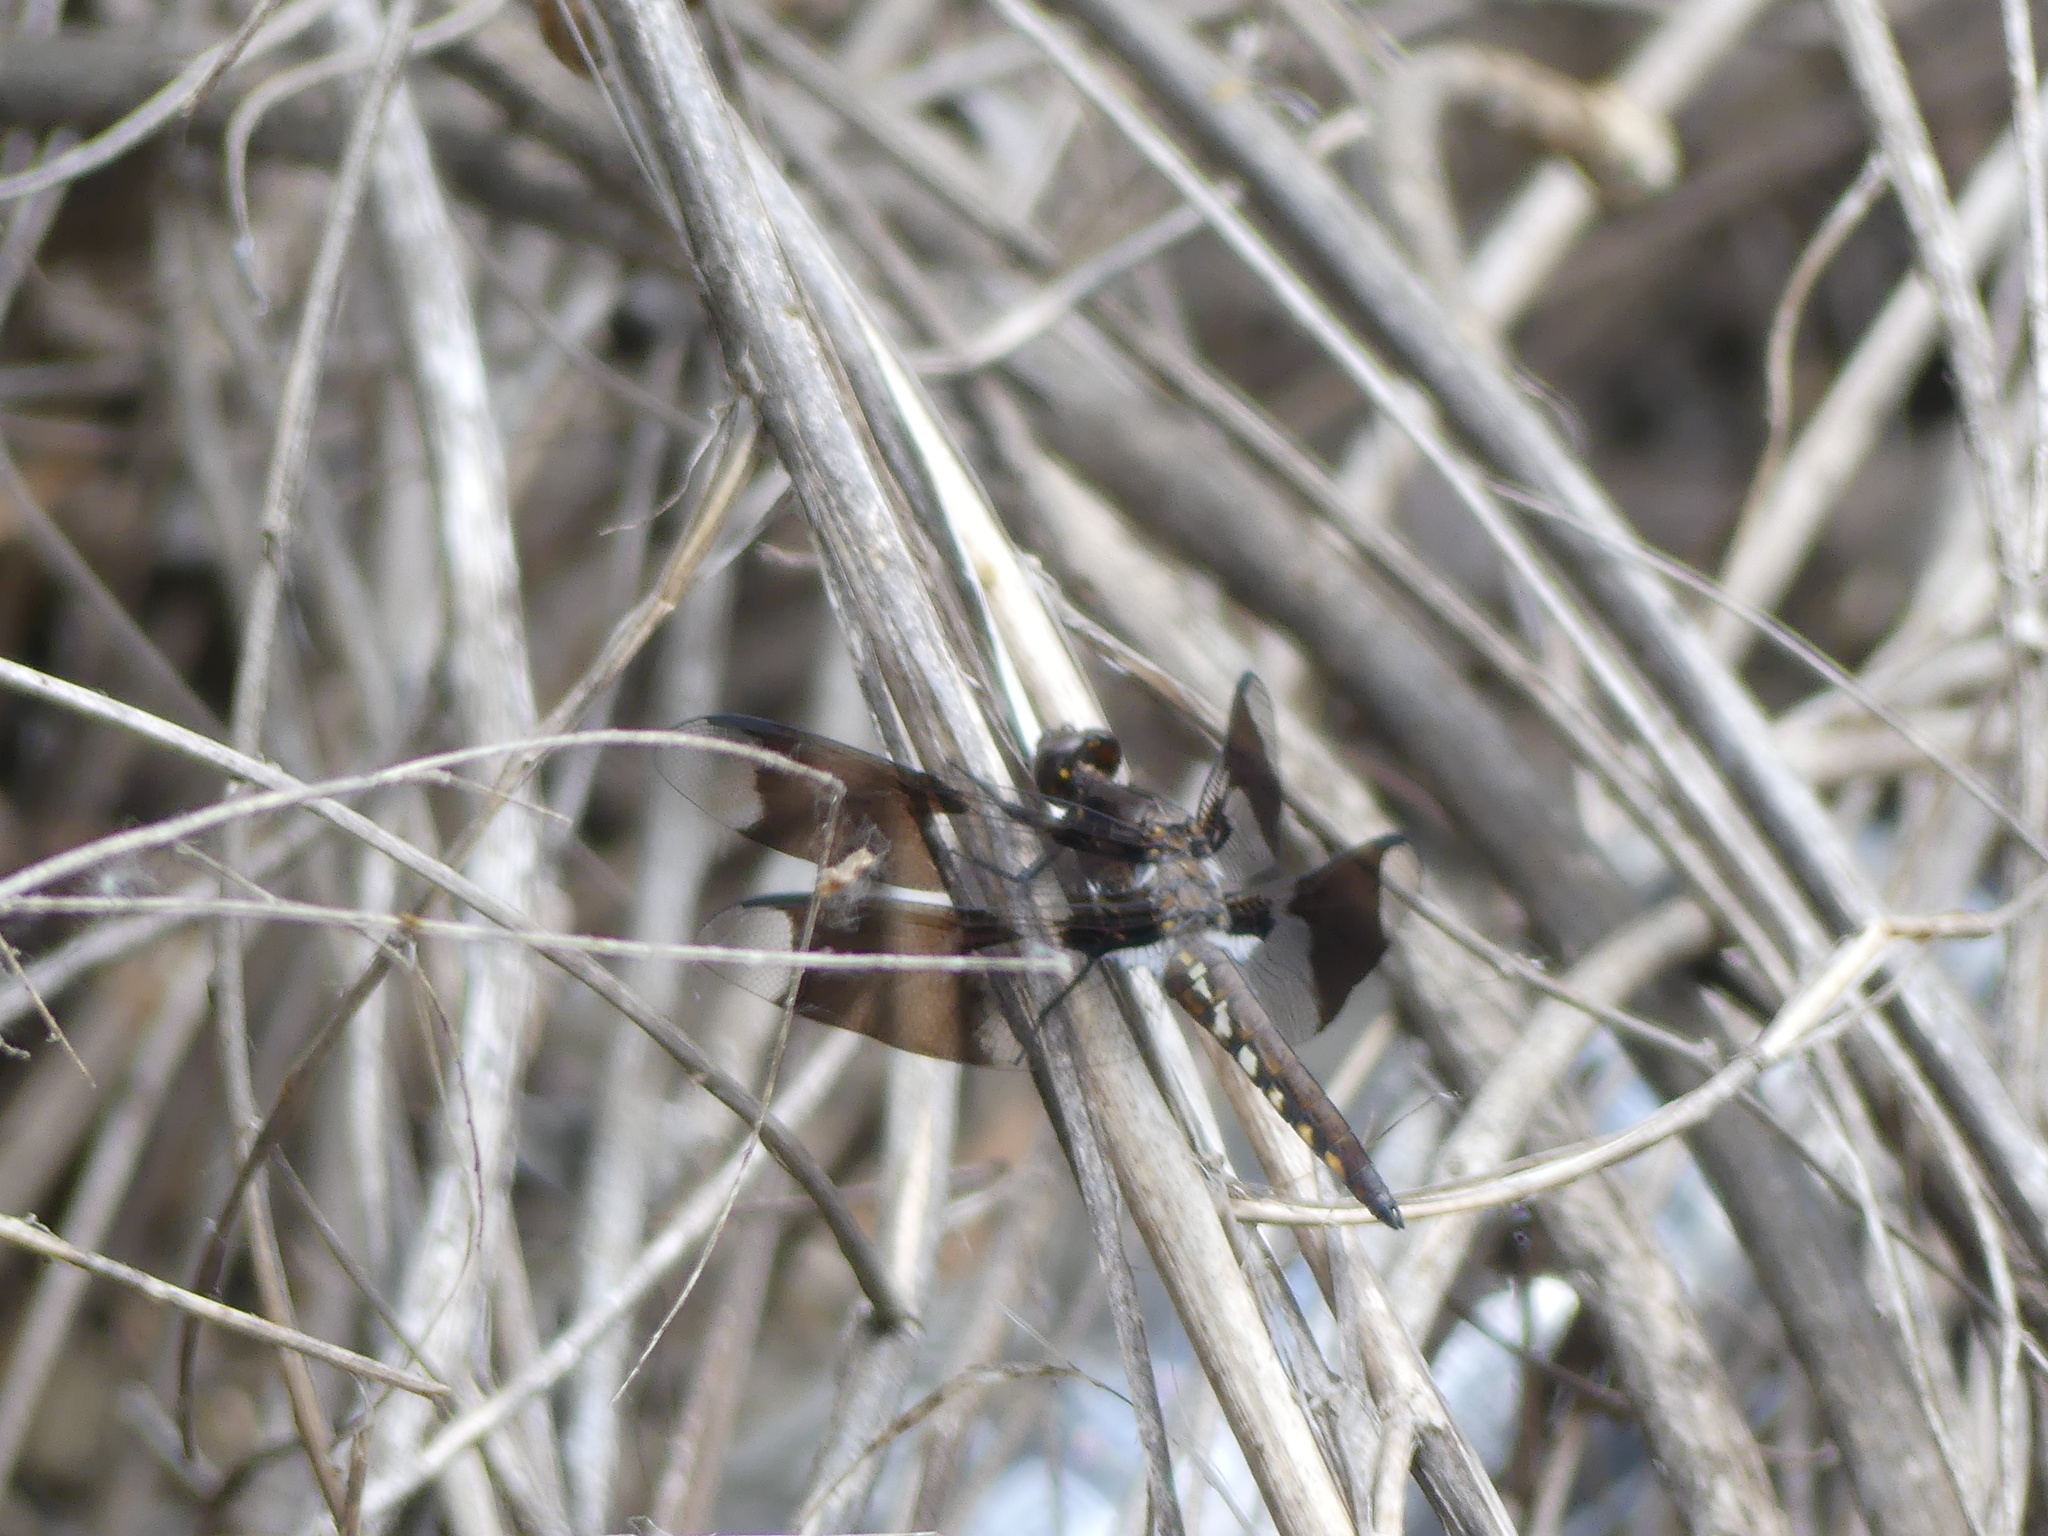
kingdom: Animalia
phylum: Arthropoda
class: Insecta
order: Odonata
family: Libellulidae
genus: Plathemis
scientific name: Plathemis lydia
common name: Common whitetail
